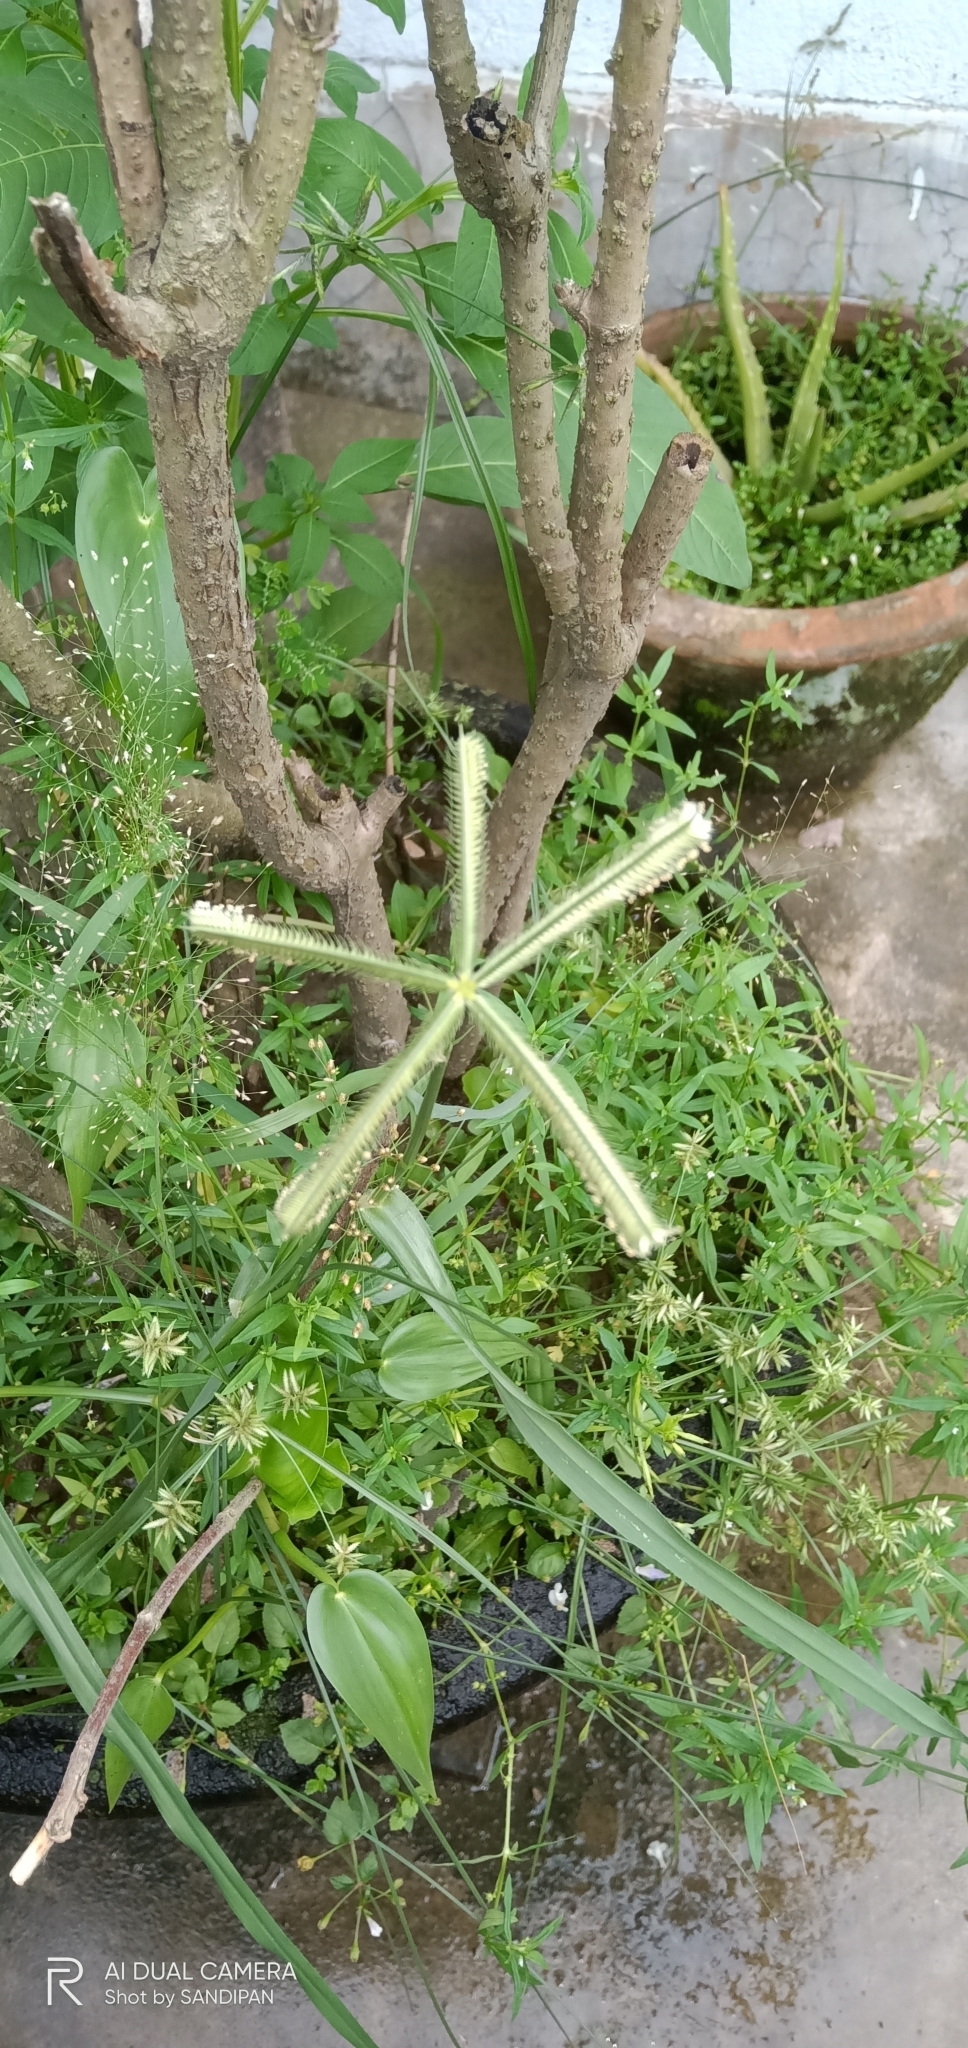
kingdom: Plantae
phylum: Tracheophyta
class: Liliopsida
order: Poales
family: Poaceae
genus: Dactyloctenium
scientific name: Dactyloctenium aegyptium
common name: Egyptian grass
